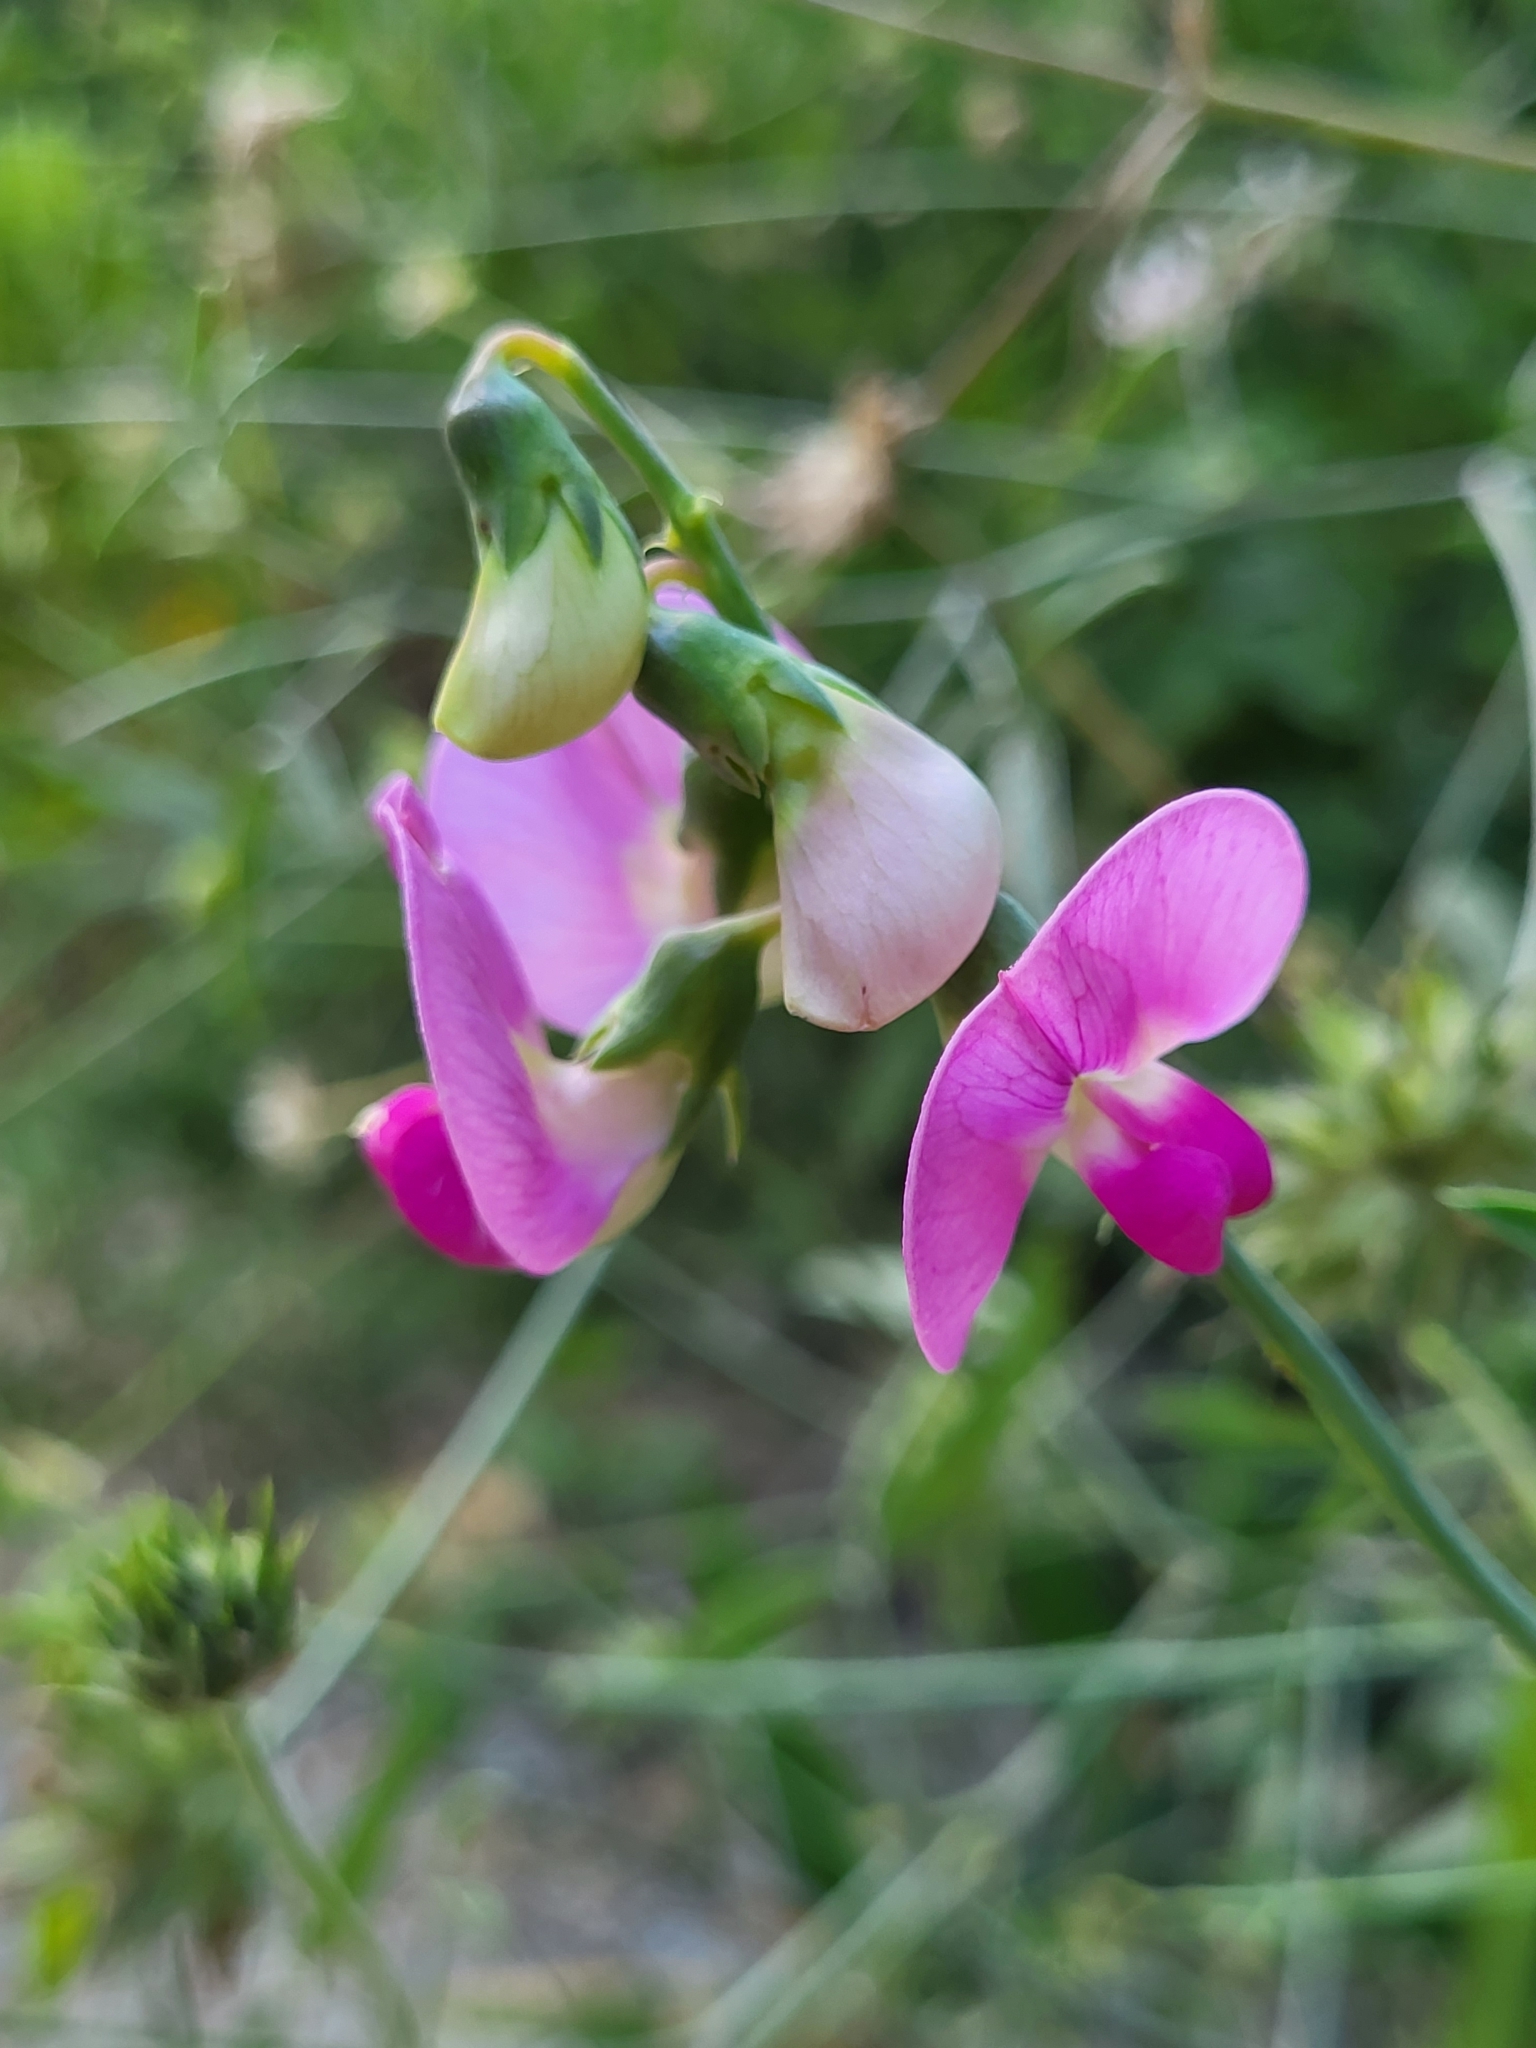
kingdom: Plantae
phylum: Tracheophyta
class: Magnoliopsida
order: Fabales
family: Fabaceae
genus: Lathyrus
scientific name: Lathyrus latifolius
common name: Perennial pea
